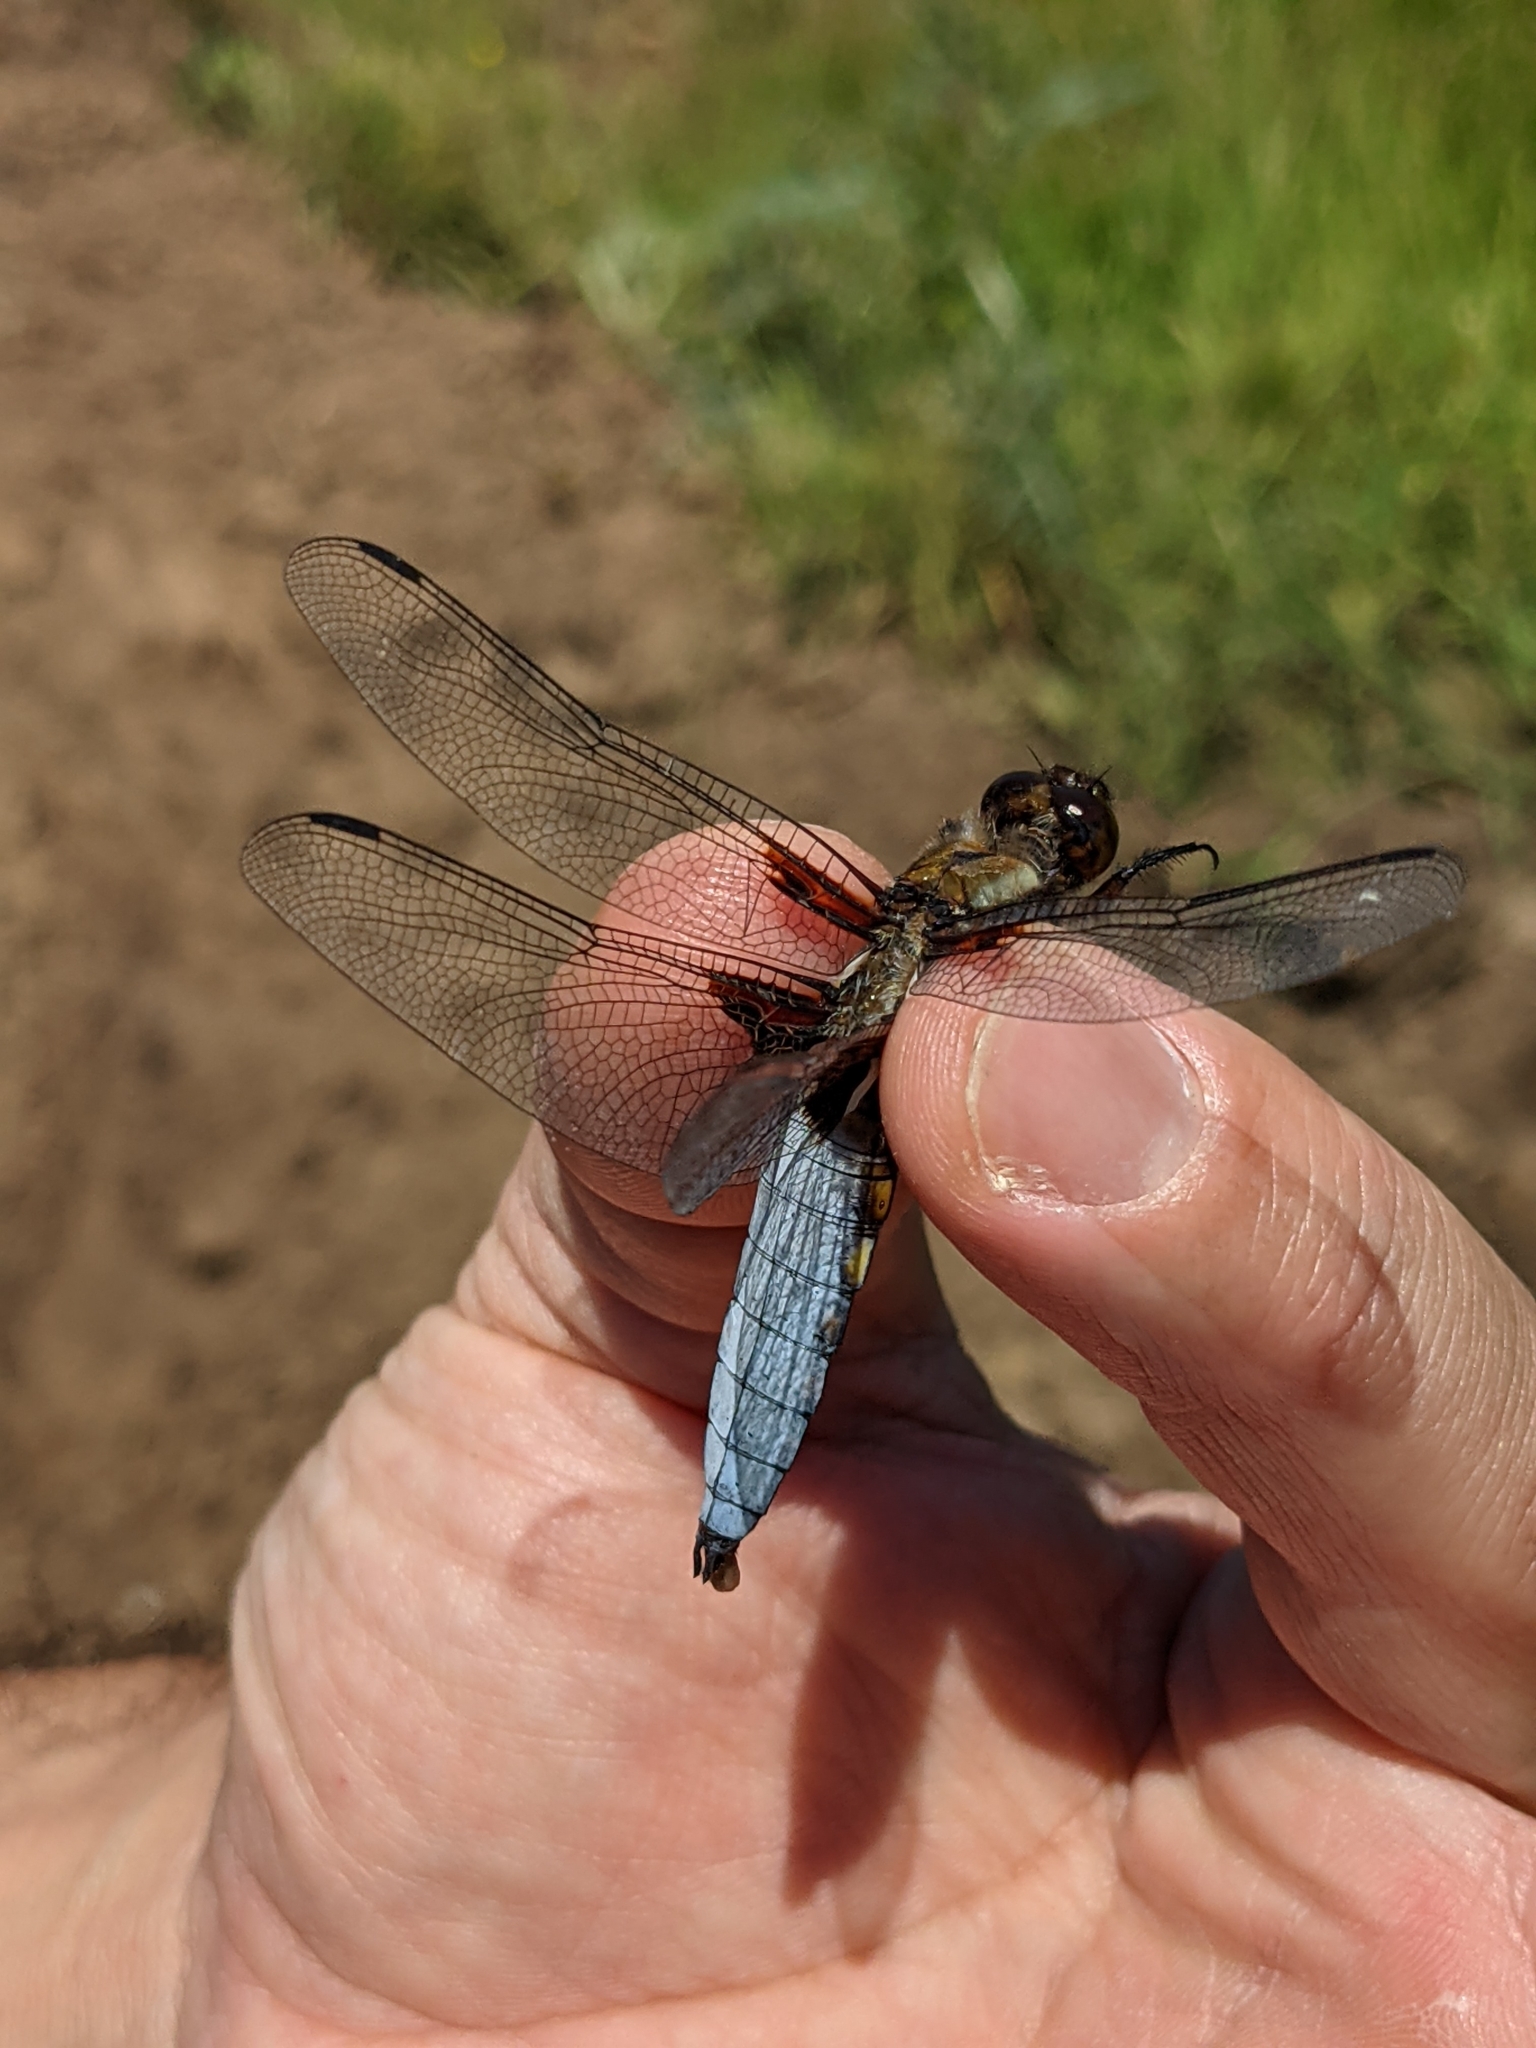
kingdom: Animalia
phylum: Arthropoda
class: Insecta
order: Odonata
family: Libellulidae
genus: Libellula
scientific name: Libellula depressa
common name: Broad-bodied chaser
